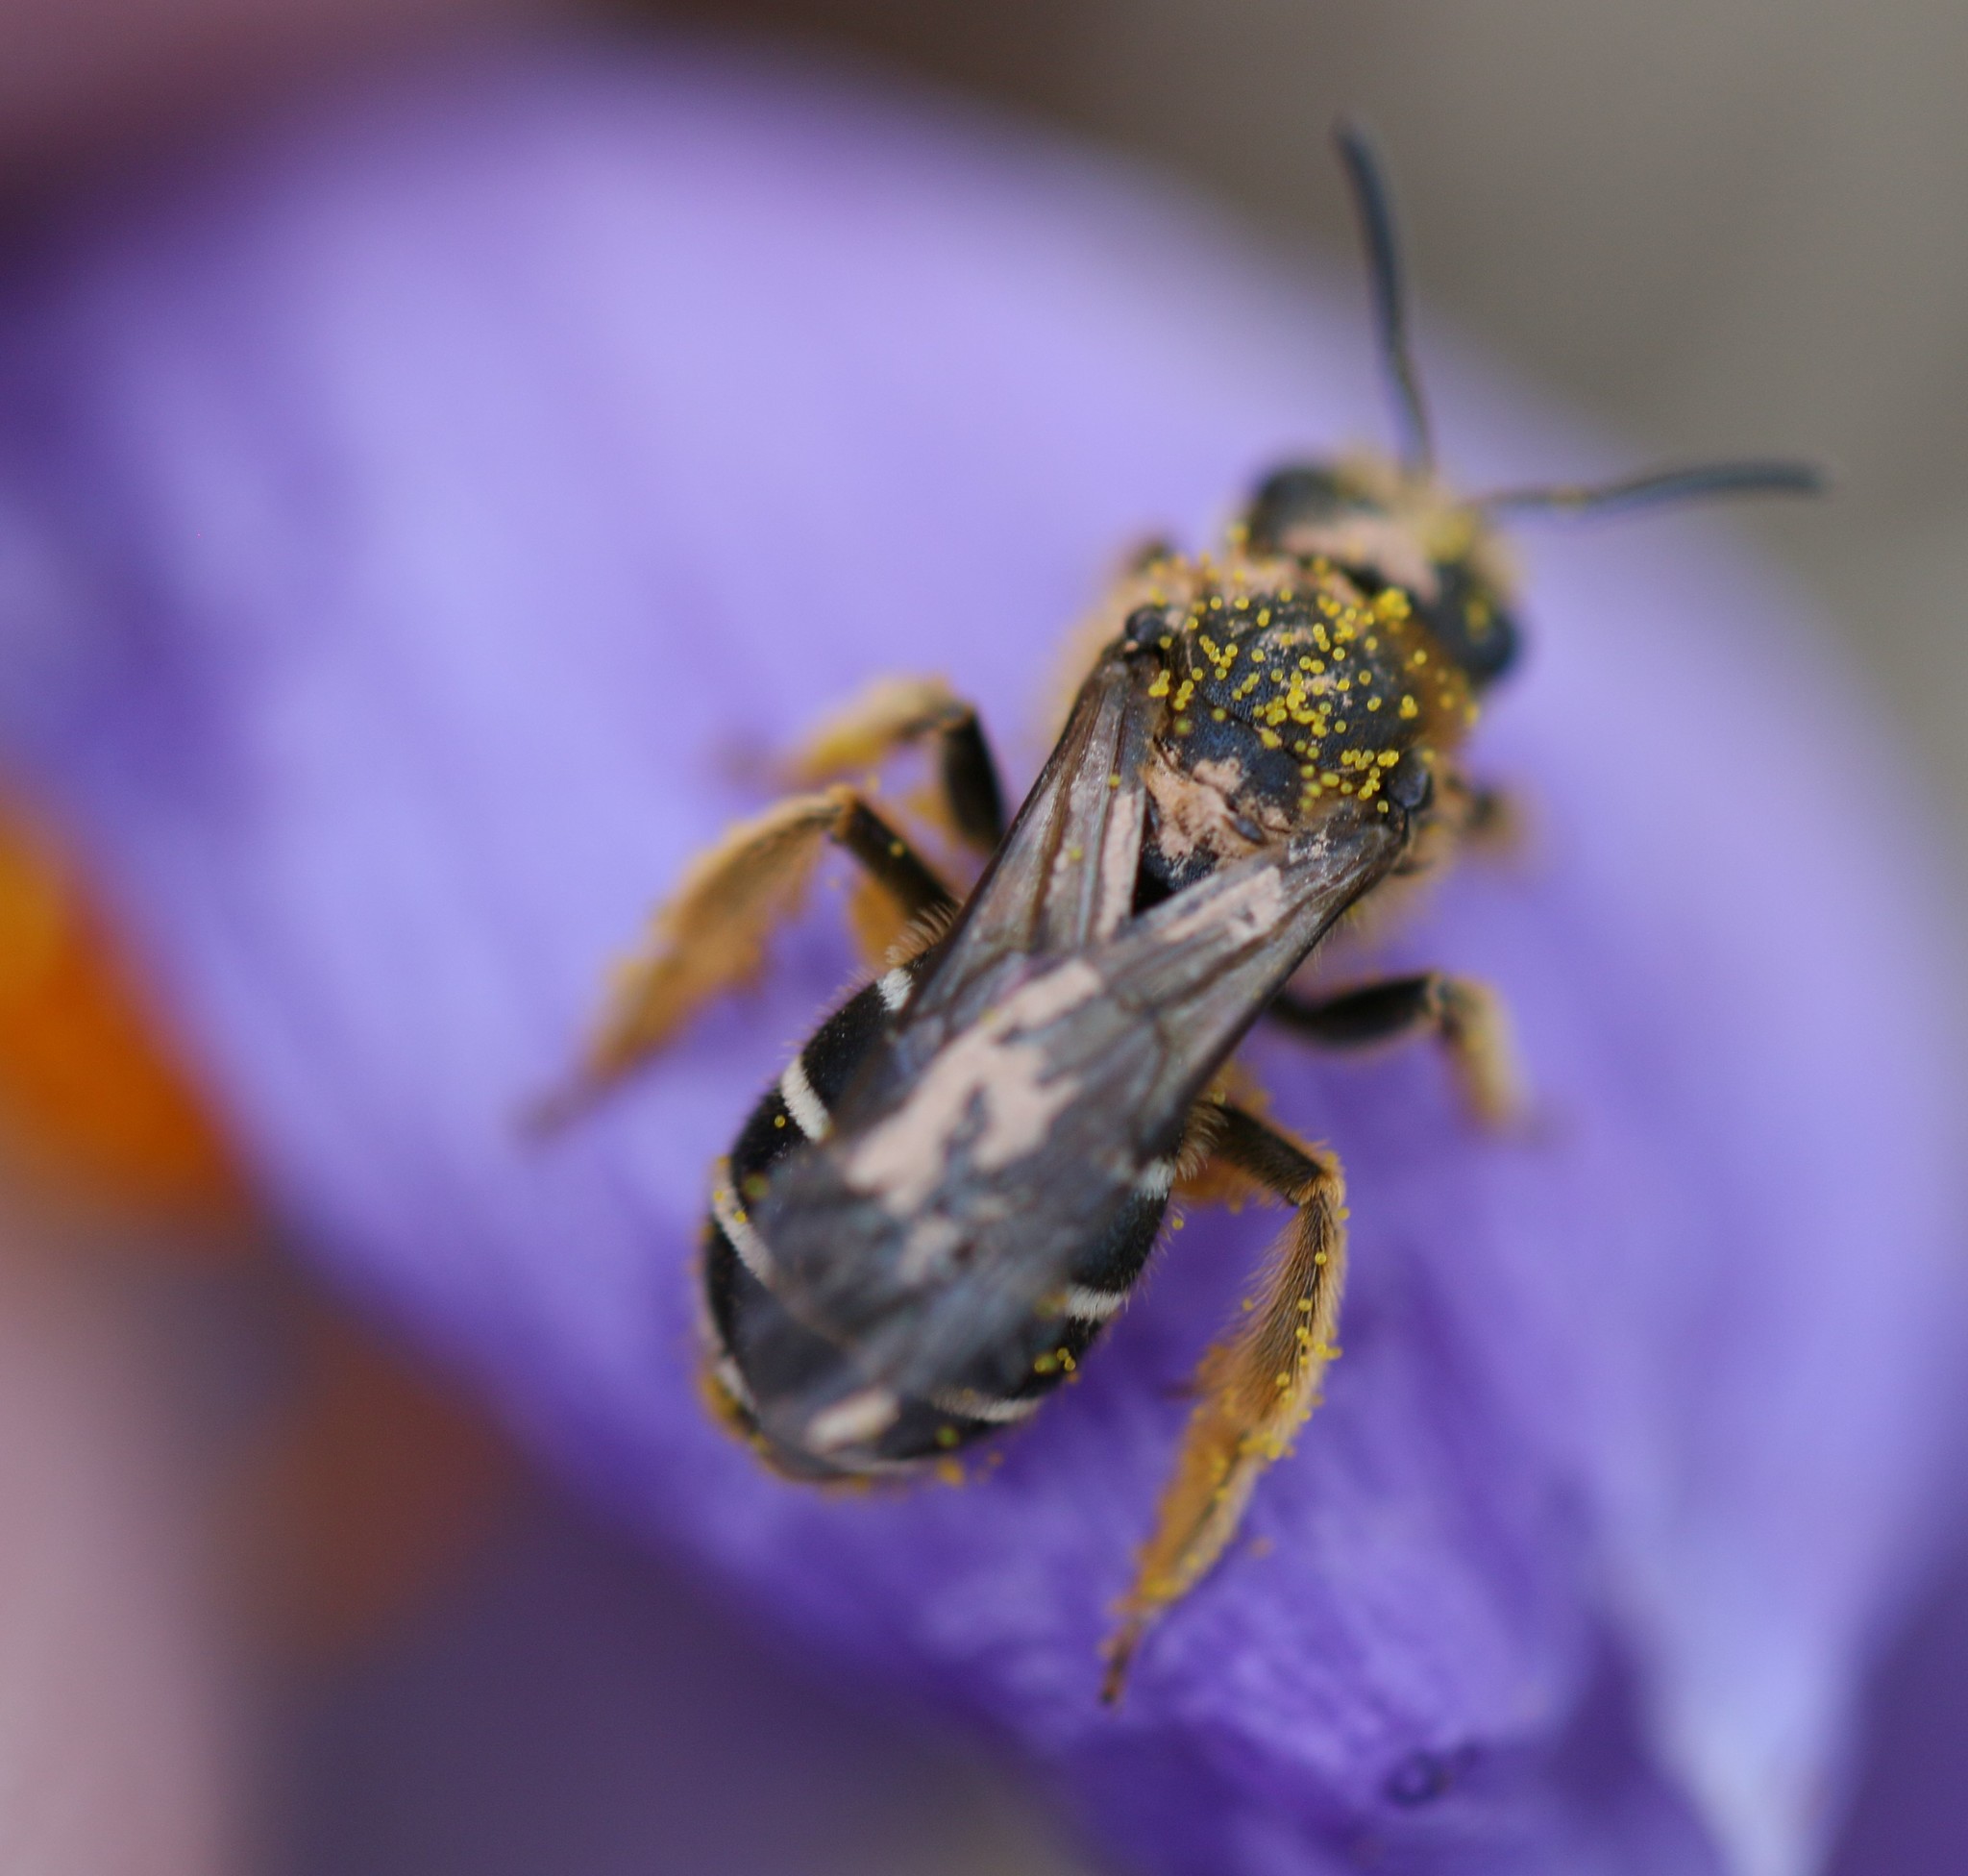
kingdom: Animalia
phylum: Arthropoda
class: Insecta
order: Hymenoptera
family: Halictidae
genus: Halictus
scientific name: Halictus rubicundus
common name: Orange-legged furrow bee
